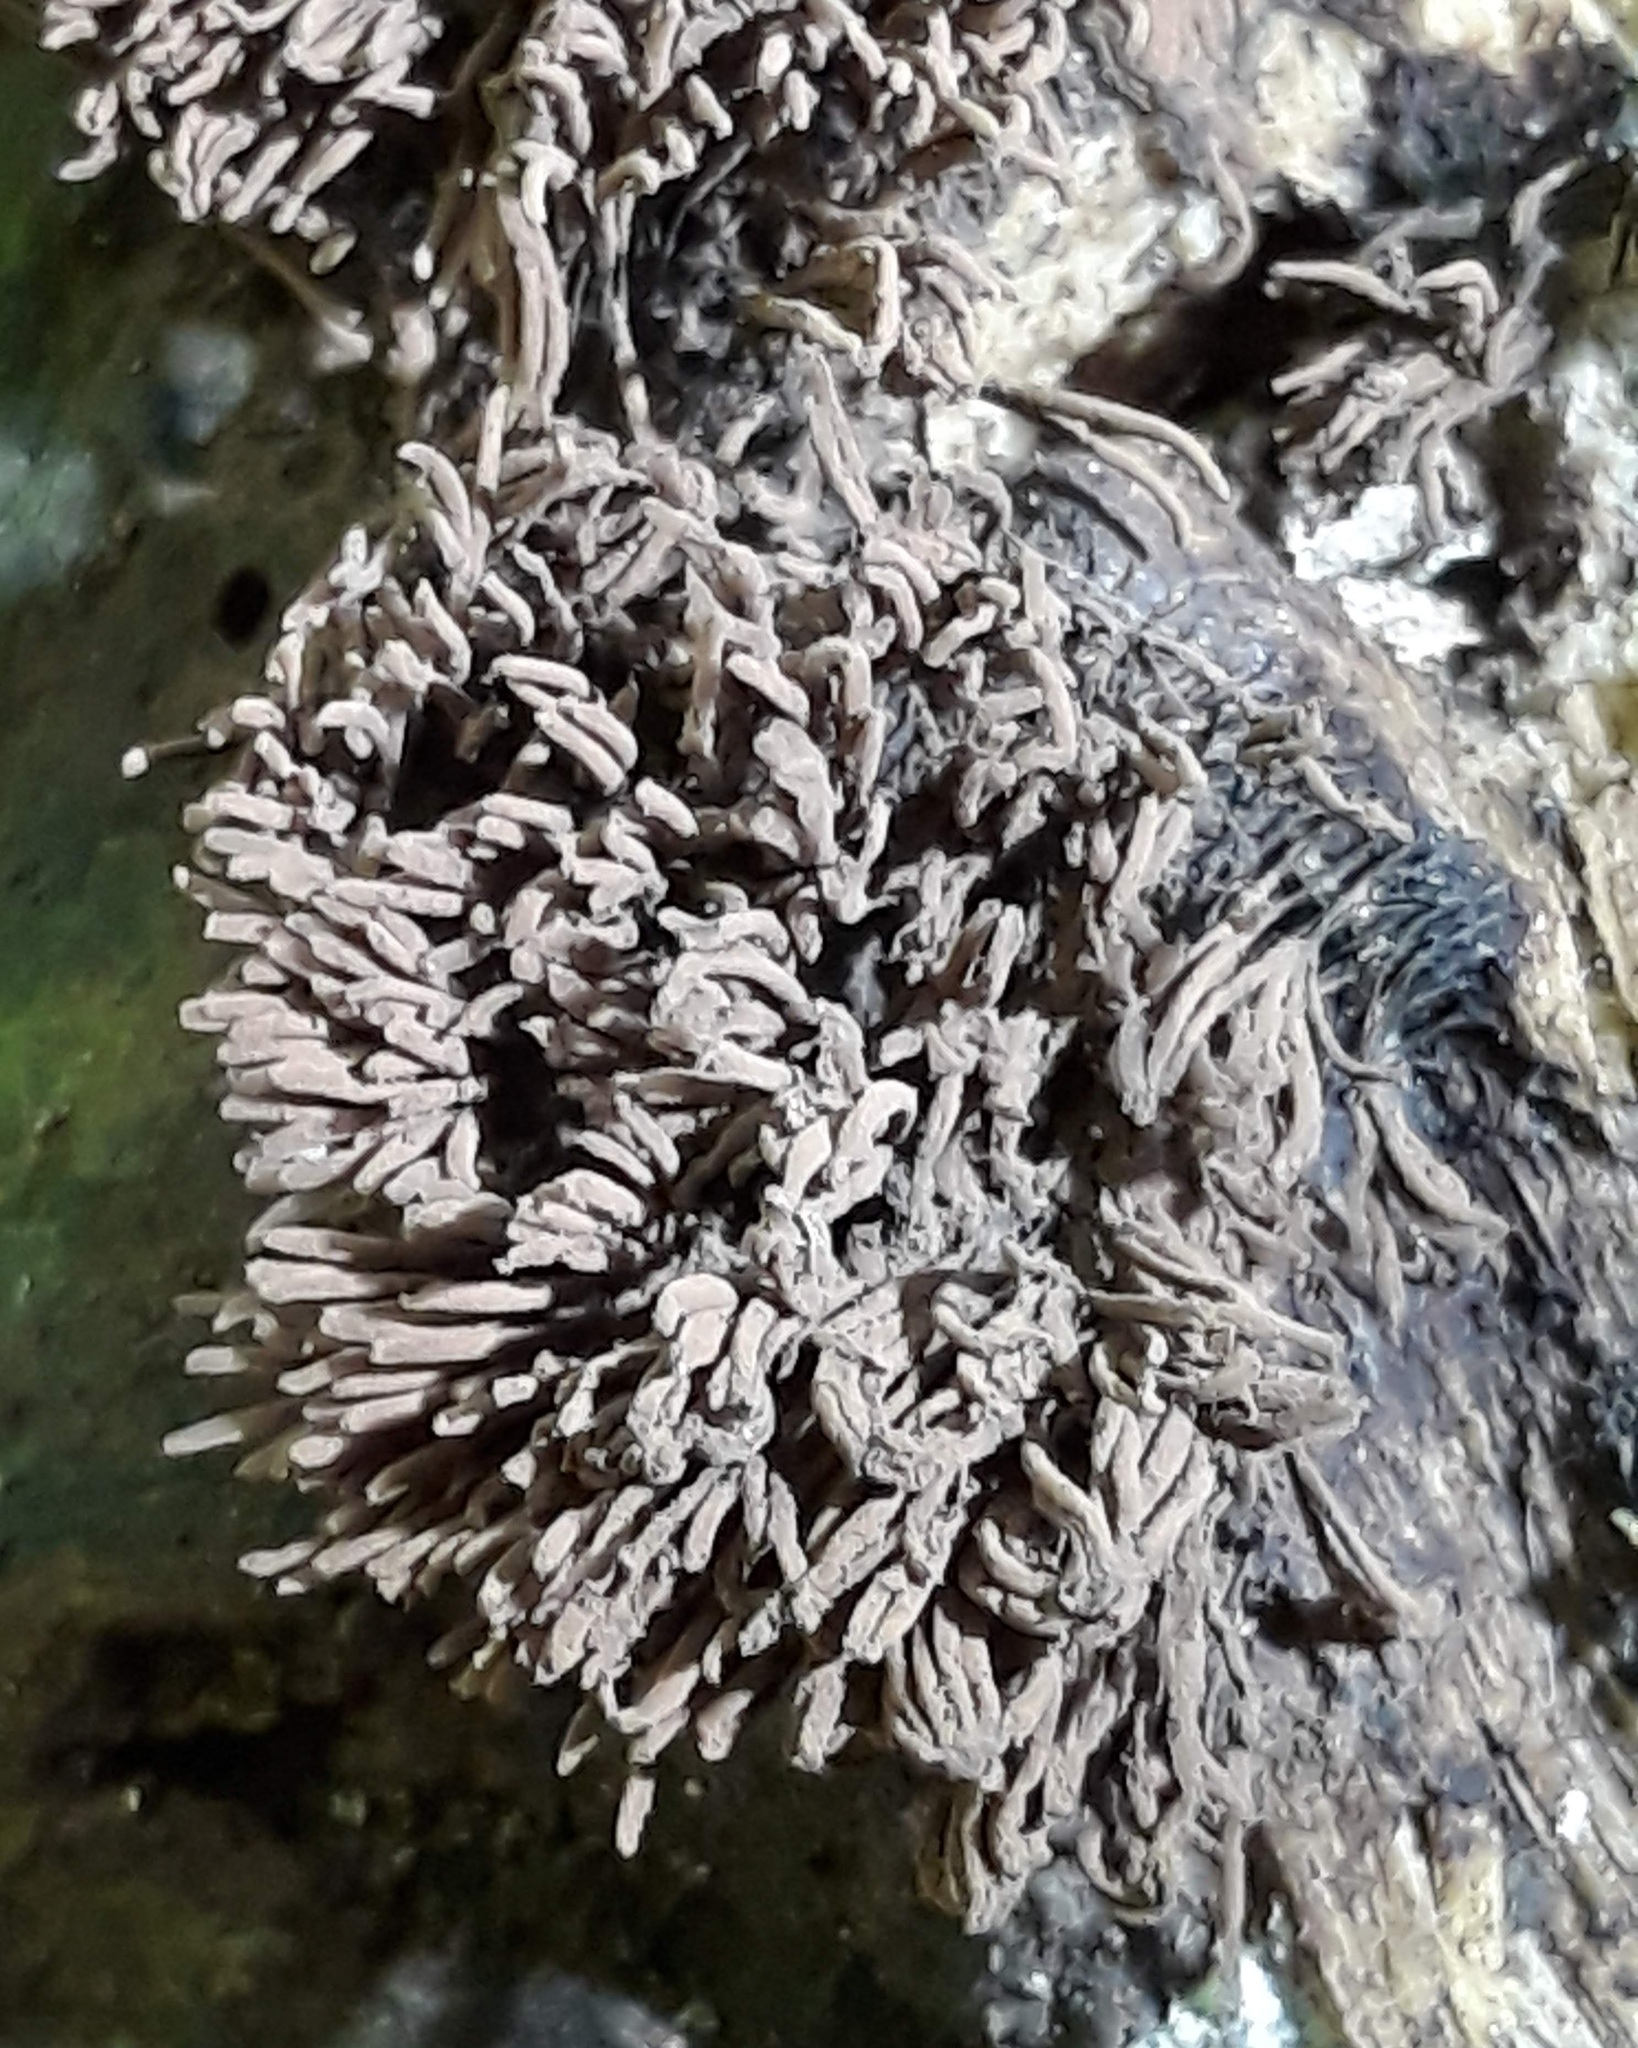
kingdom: Protozoa
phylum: Mycetozoa
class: Myxomycetes
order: Stemonitidales
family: Stemonitidaceae
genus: Stemonitis
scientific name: Stemonitis
